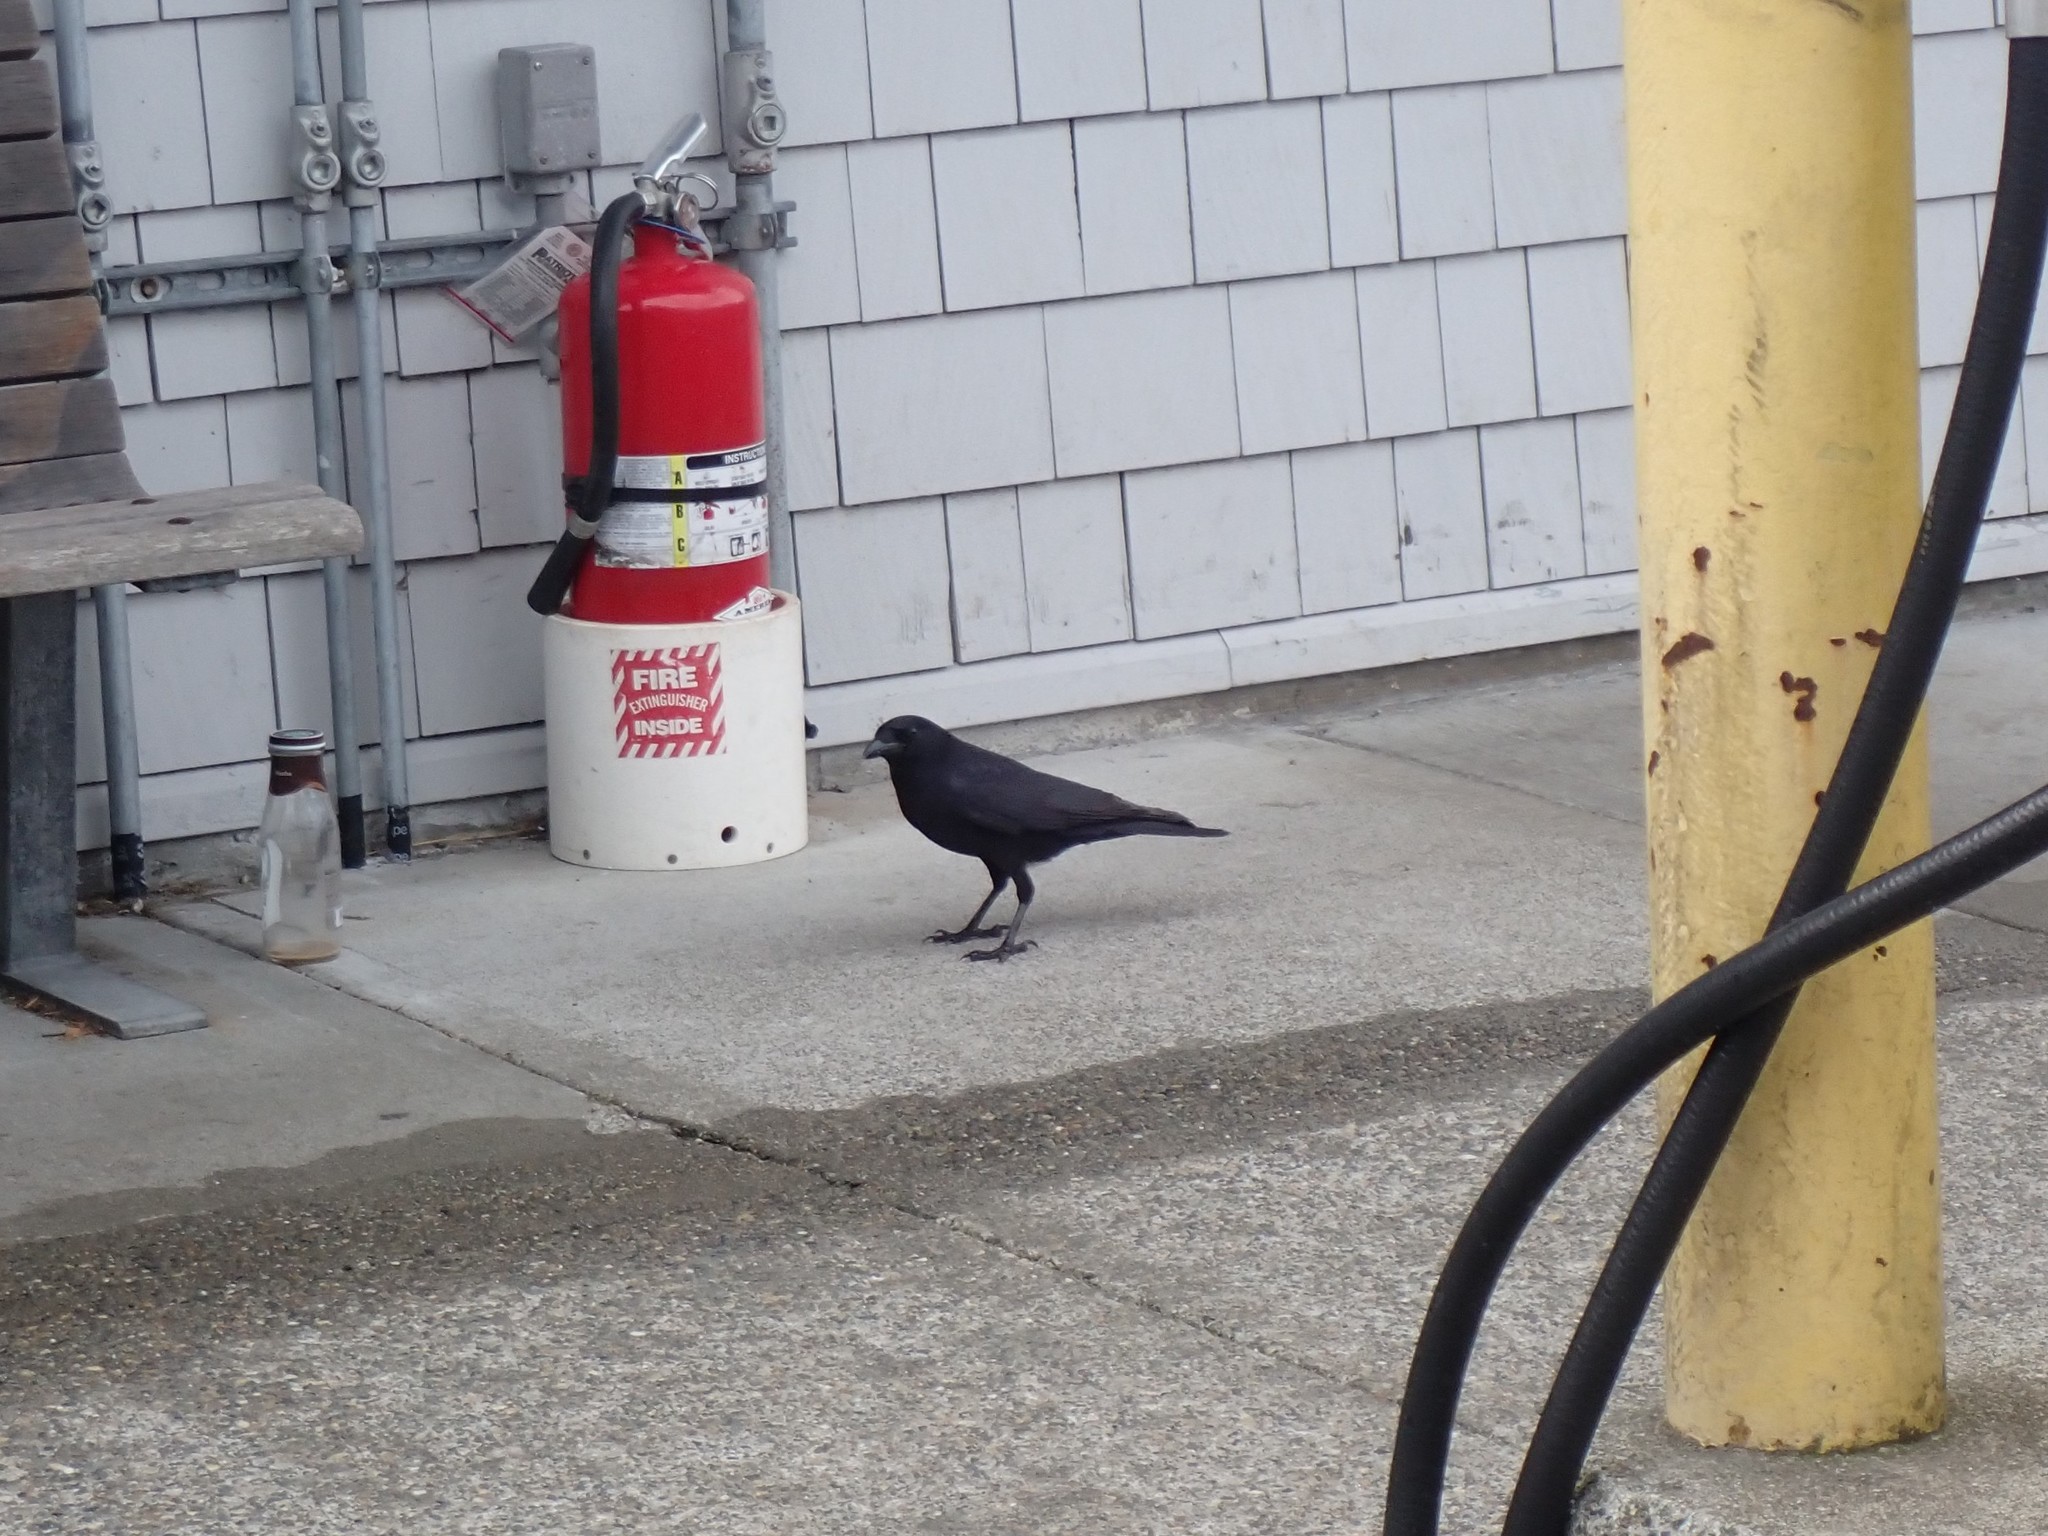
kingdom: Animalia
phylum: Chordata
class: Aves
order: Passeriformes
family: Corvidae
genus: Corvus
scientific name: Corvus brachyrhynchos
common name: American crow
